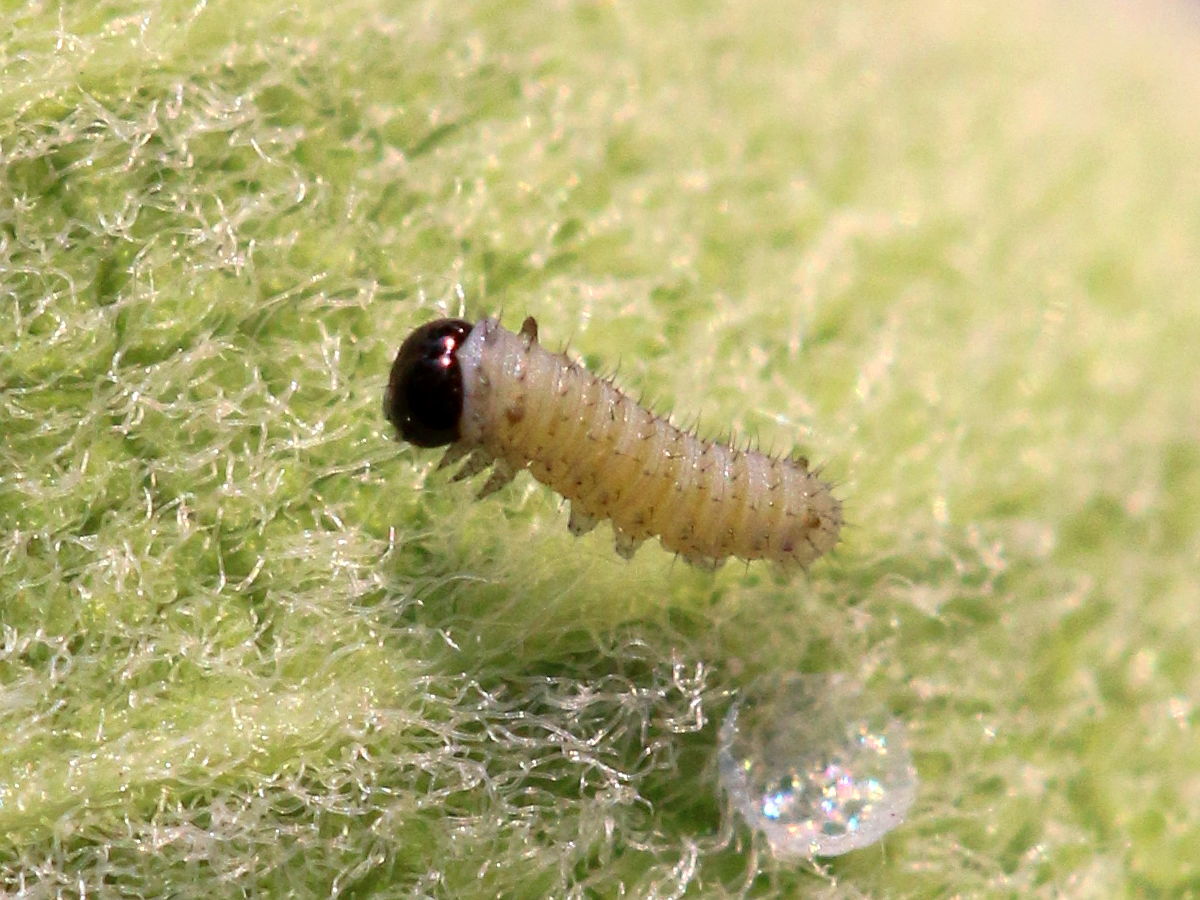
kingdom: Animalia
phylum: Arthropoda
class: Insecta
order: Lepidoptera
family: Nymphalidae
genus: Danaus
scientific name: Danaus plexippus
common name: Monarch
